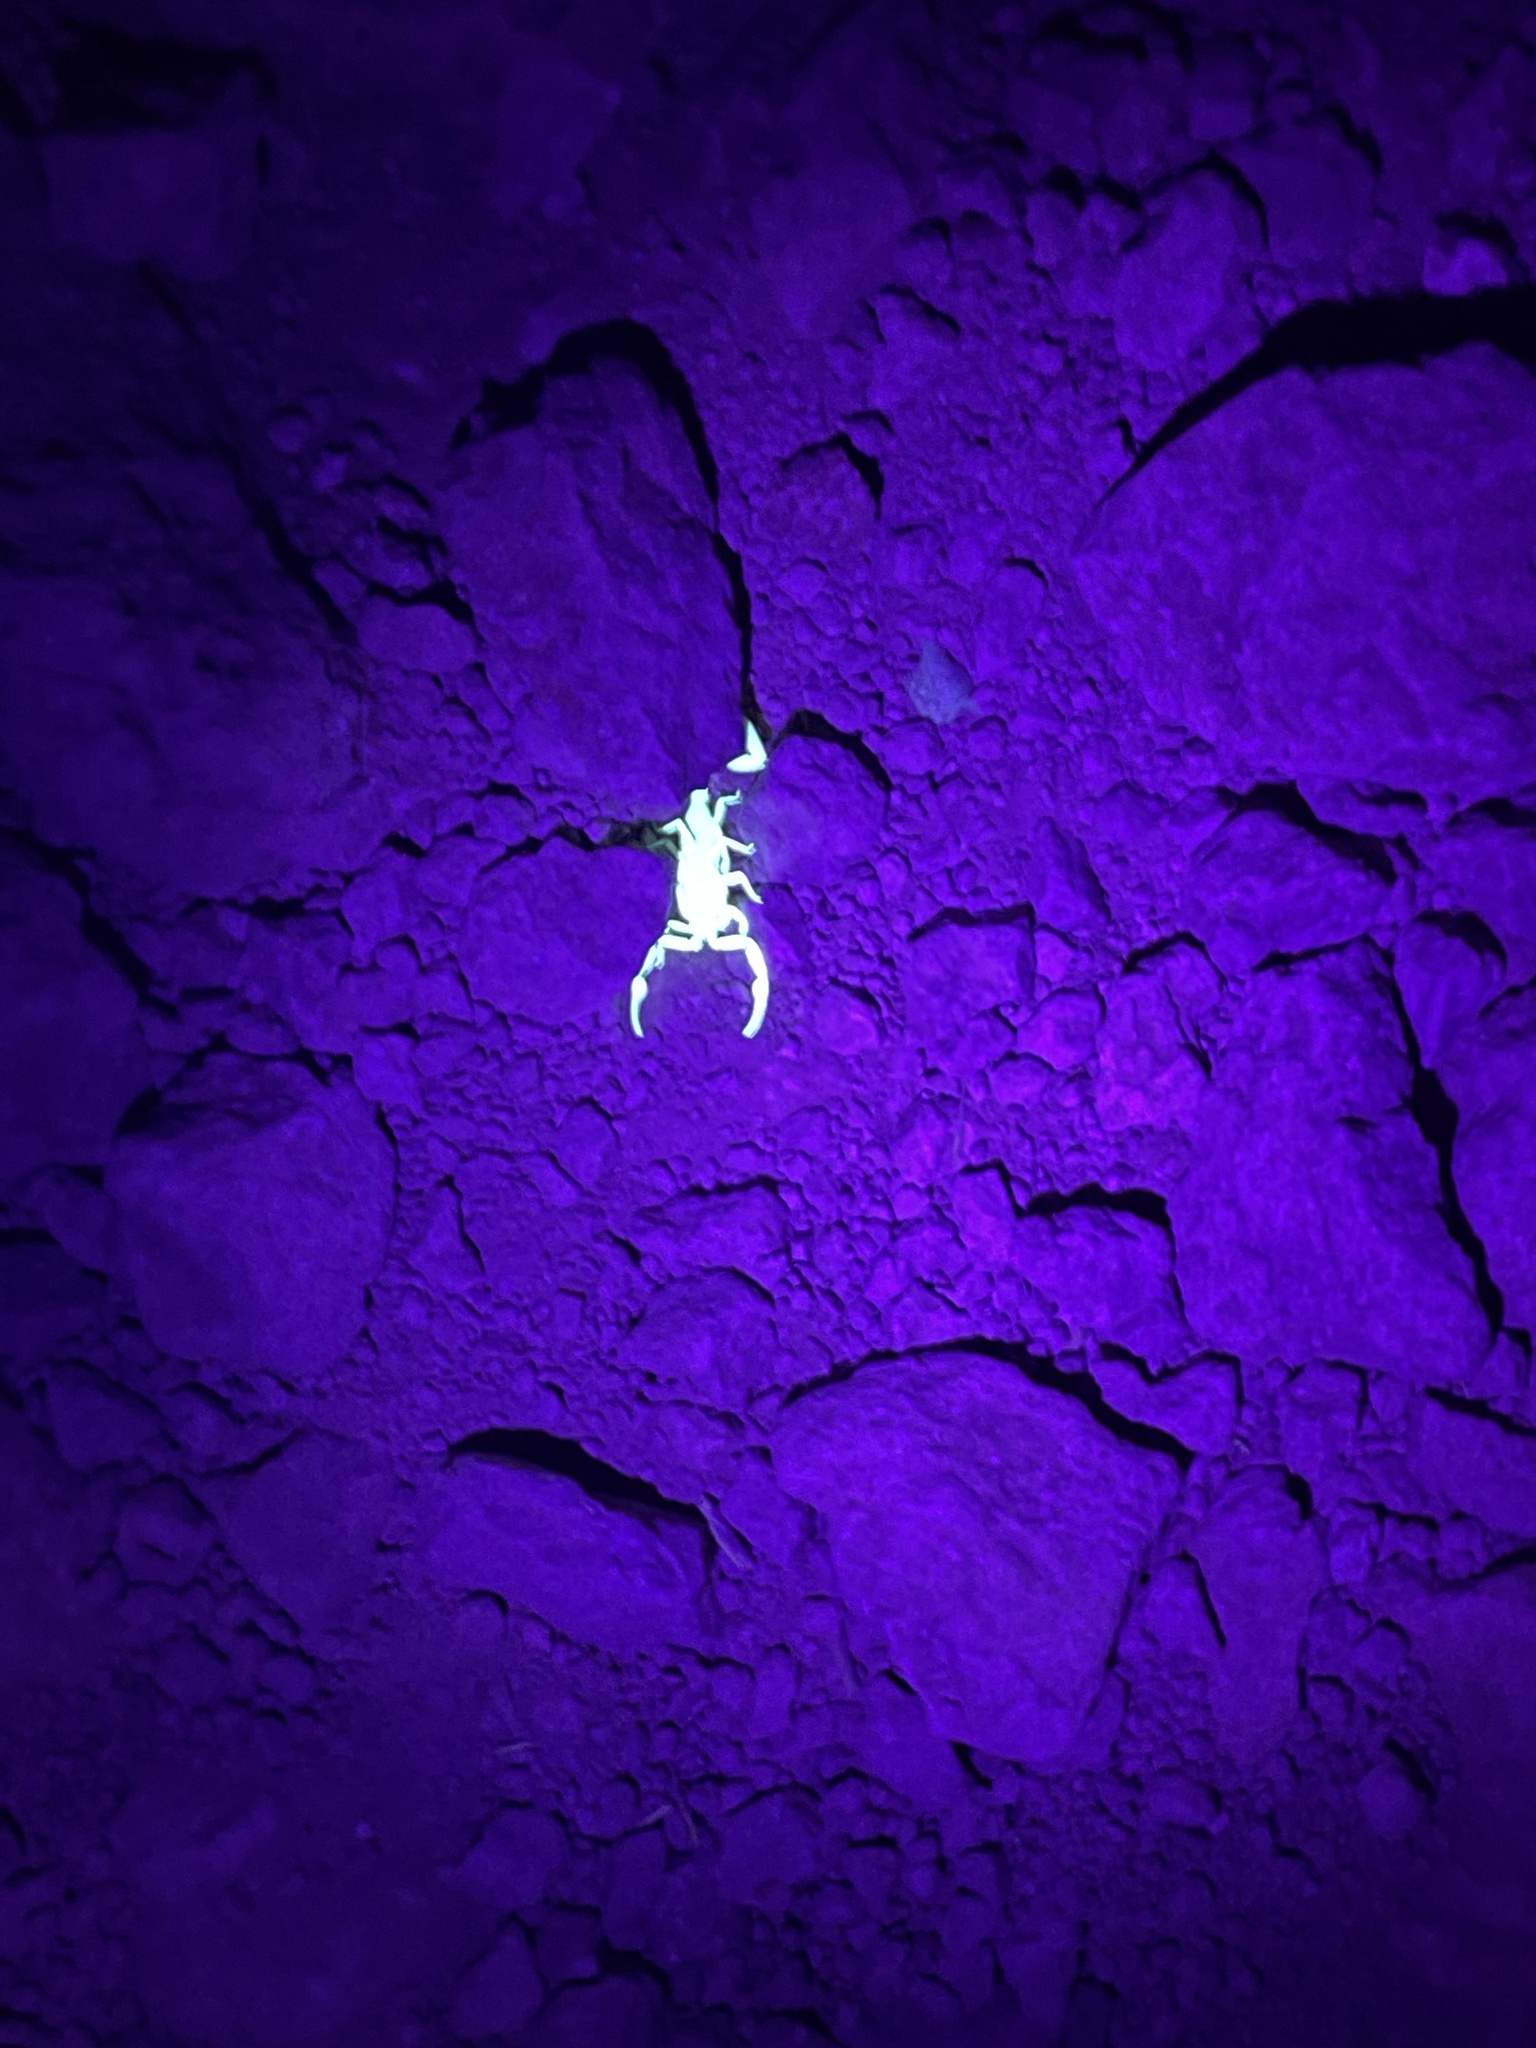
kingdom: Animalia
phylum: Arthropoda
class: Arachnida
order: Scorpiones
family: Buthidae
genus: Centruroides
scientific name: Centruroides sculpturatus
